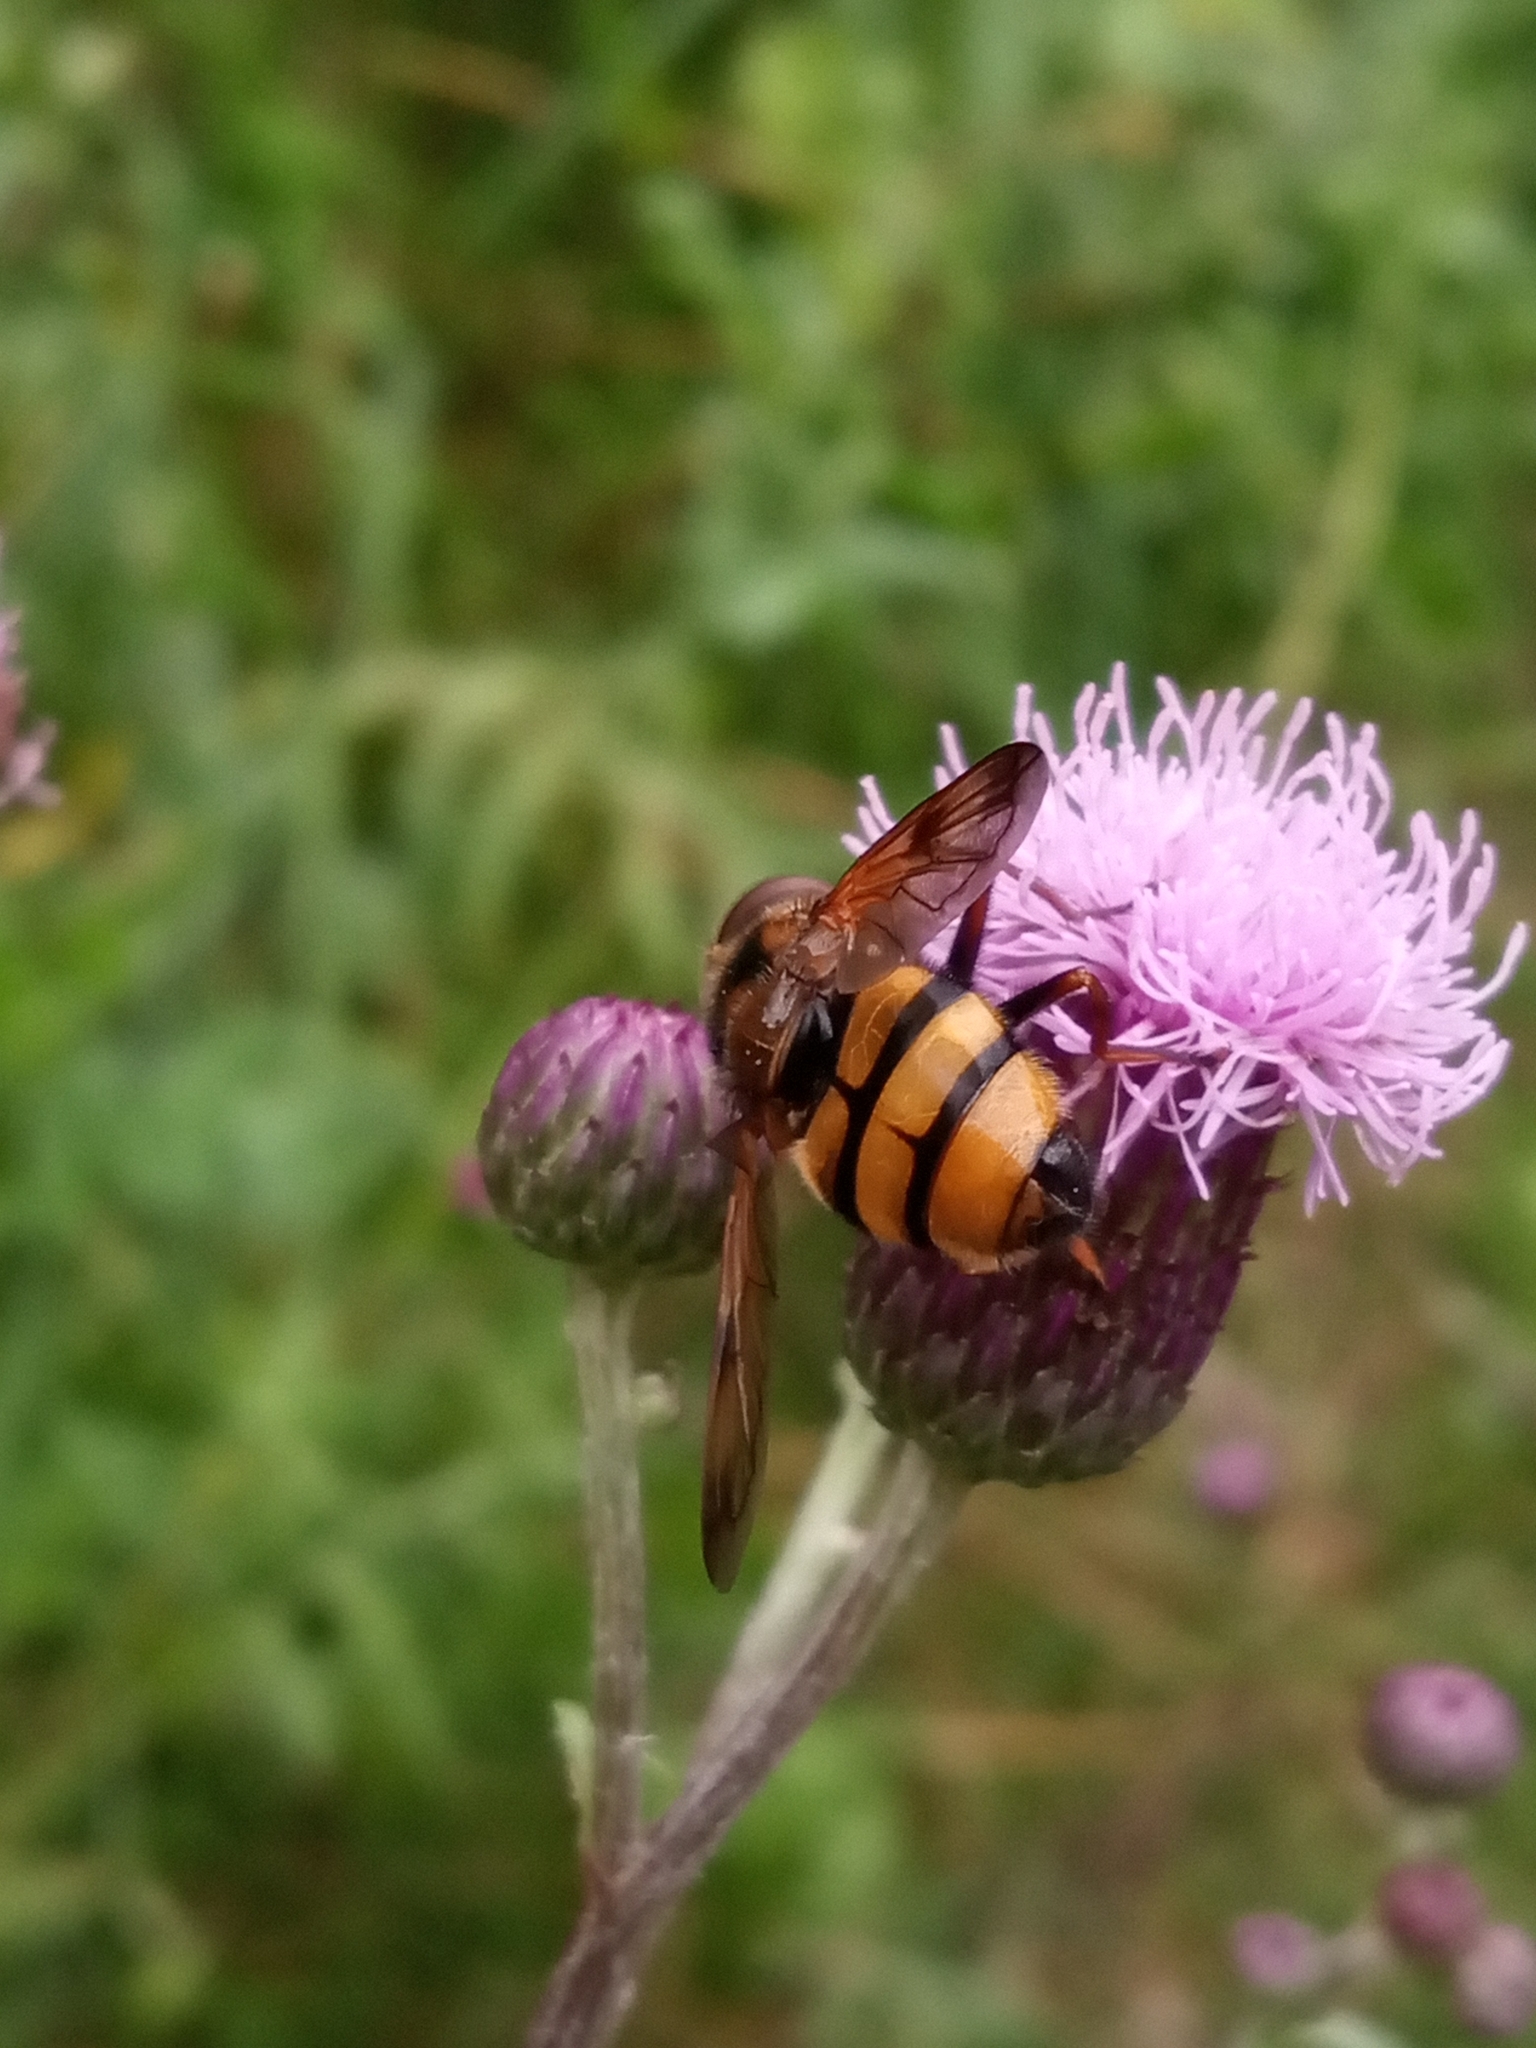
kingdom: Animalia
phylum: Arthropoda
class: Insecta
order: Diptera
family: Syrphidae
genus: Volucella
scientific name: Volucella inanis
